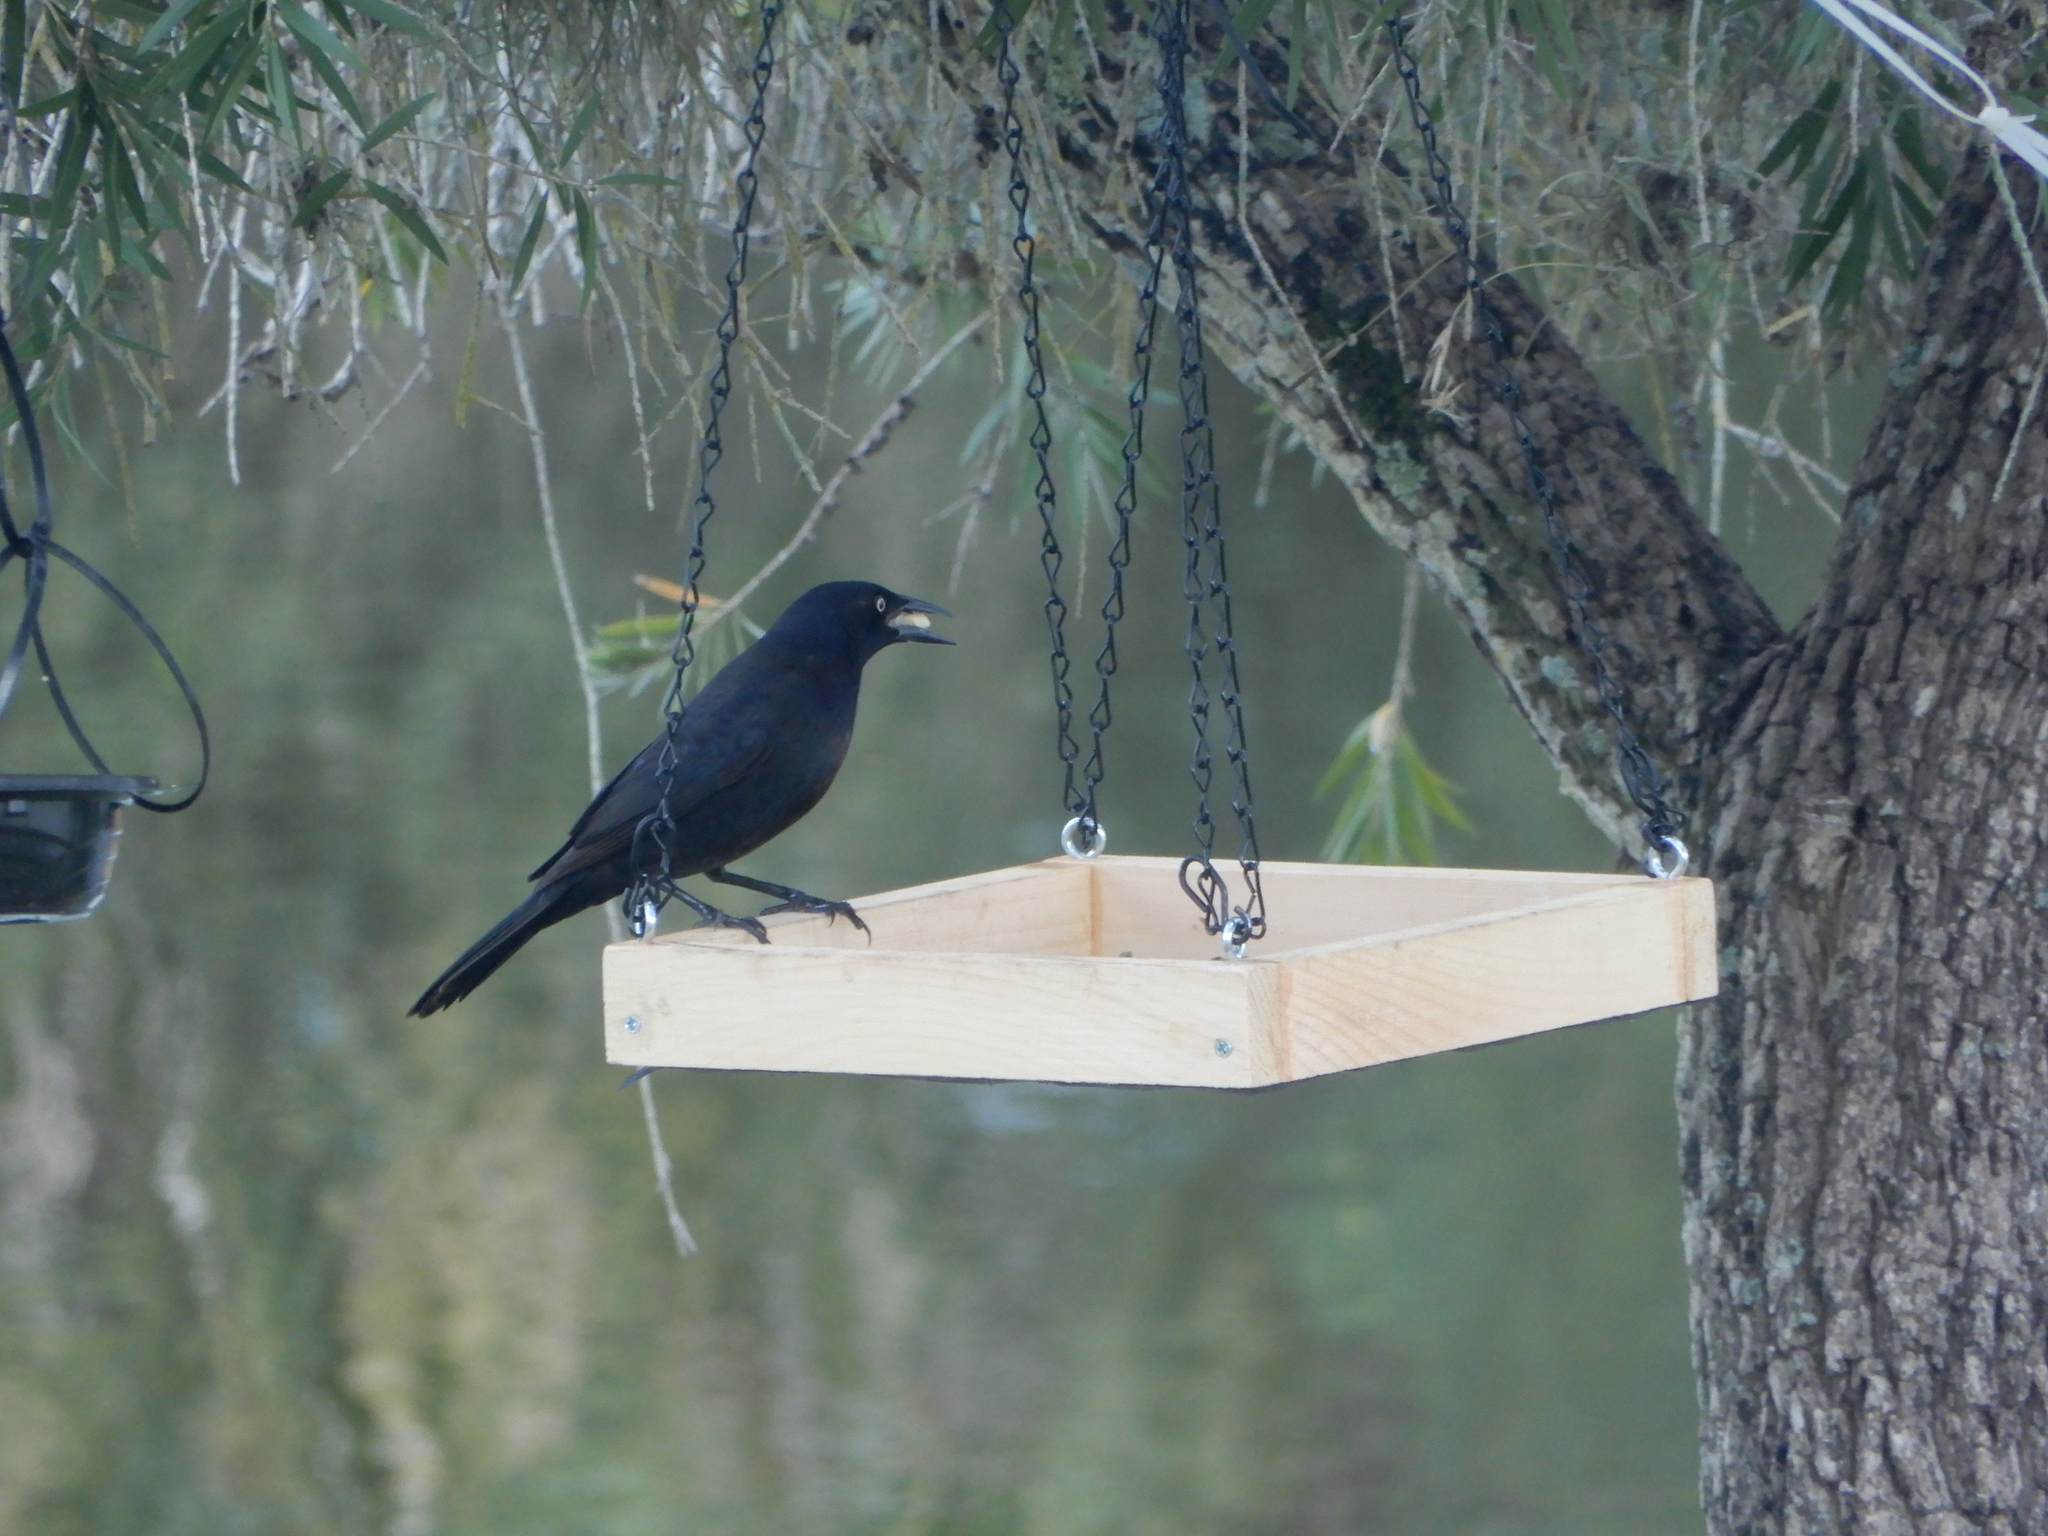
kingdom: Animalia
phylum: Chordata
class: Aves
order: Passeriformes
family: Icteridae
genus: Quiscalus
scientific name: Quiscalus quiscula
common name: Common grackle
